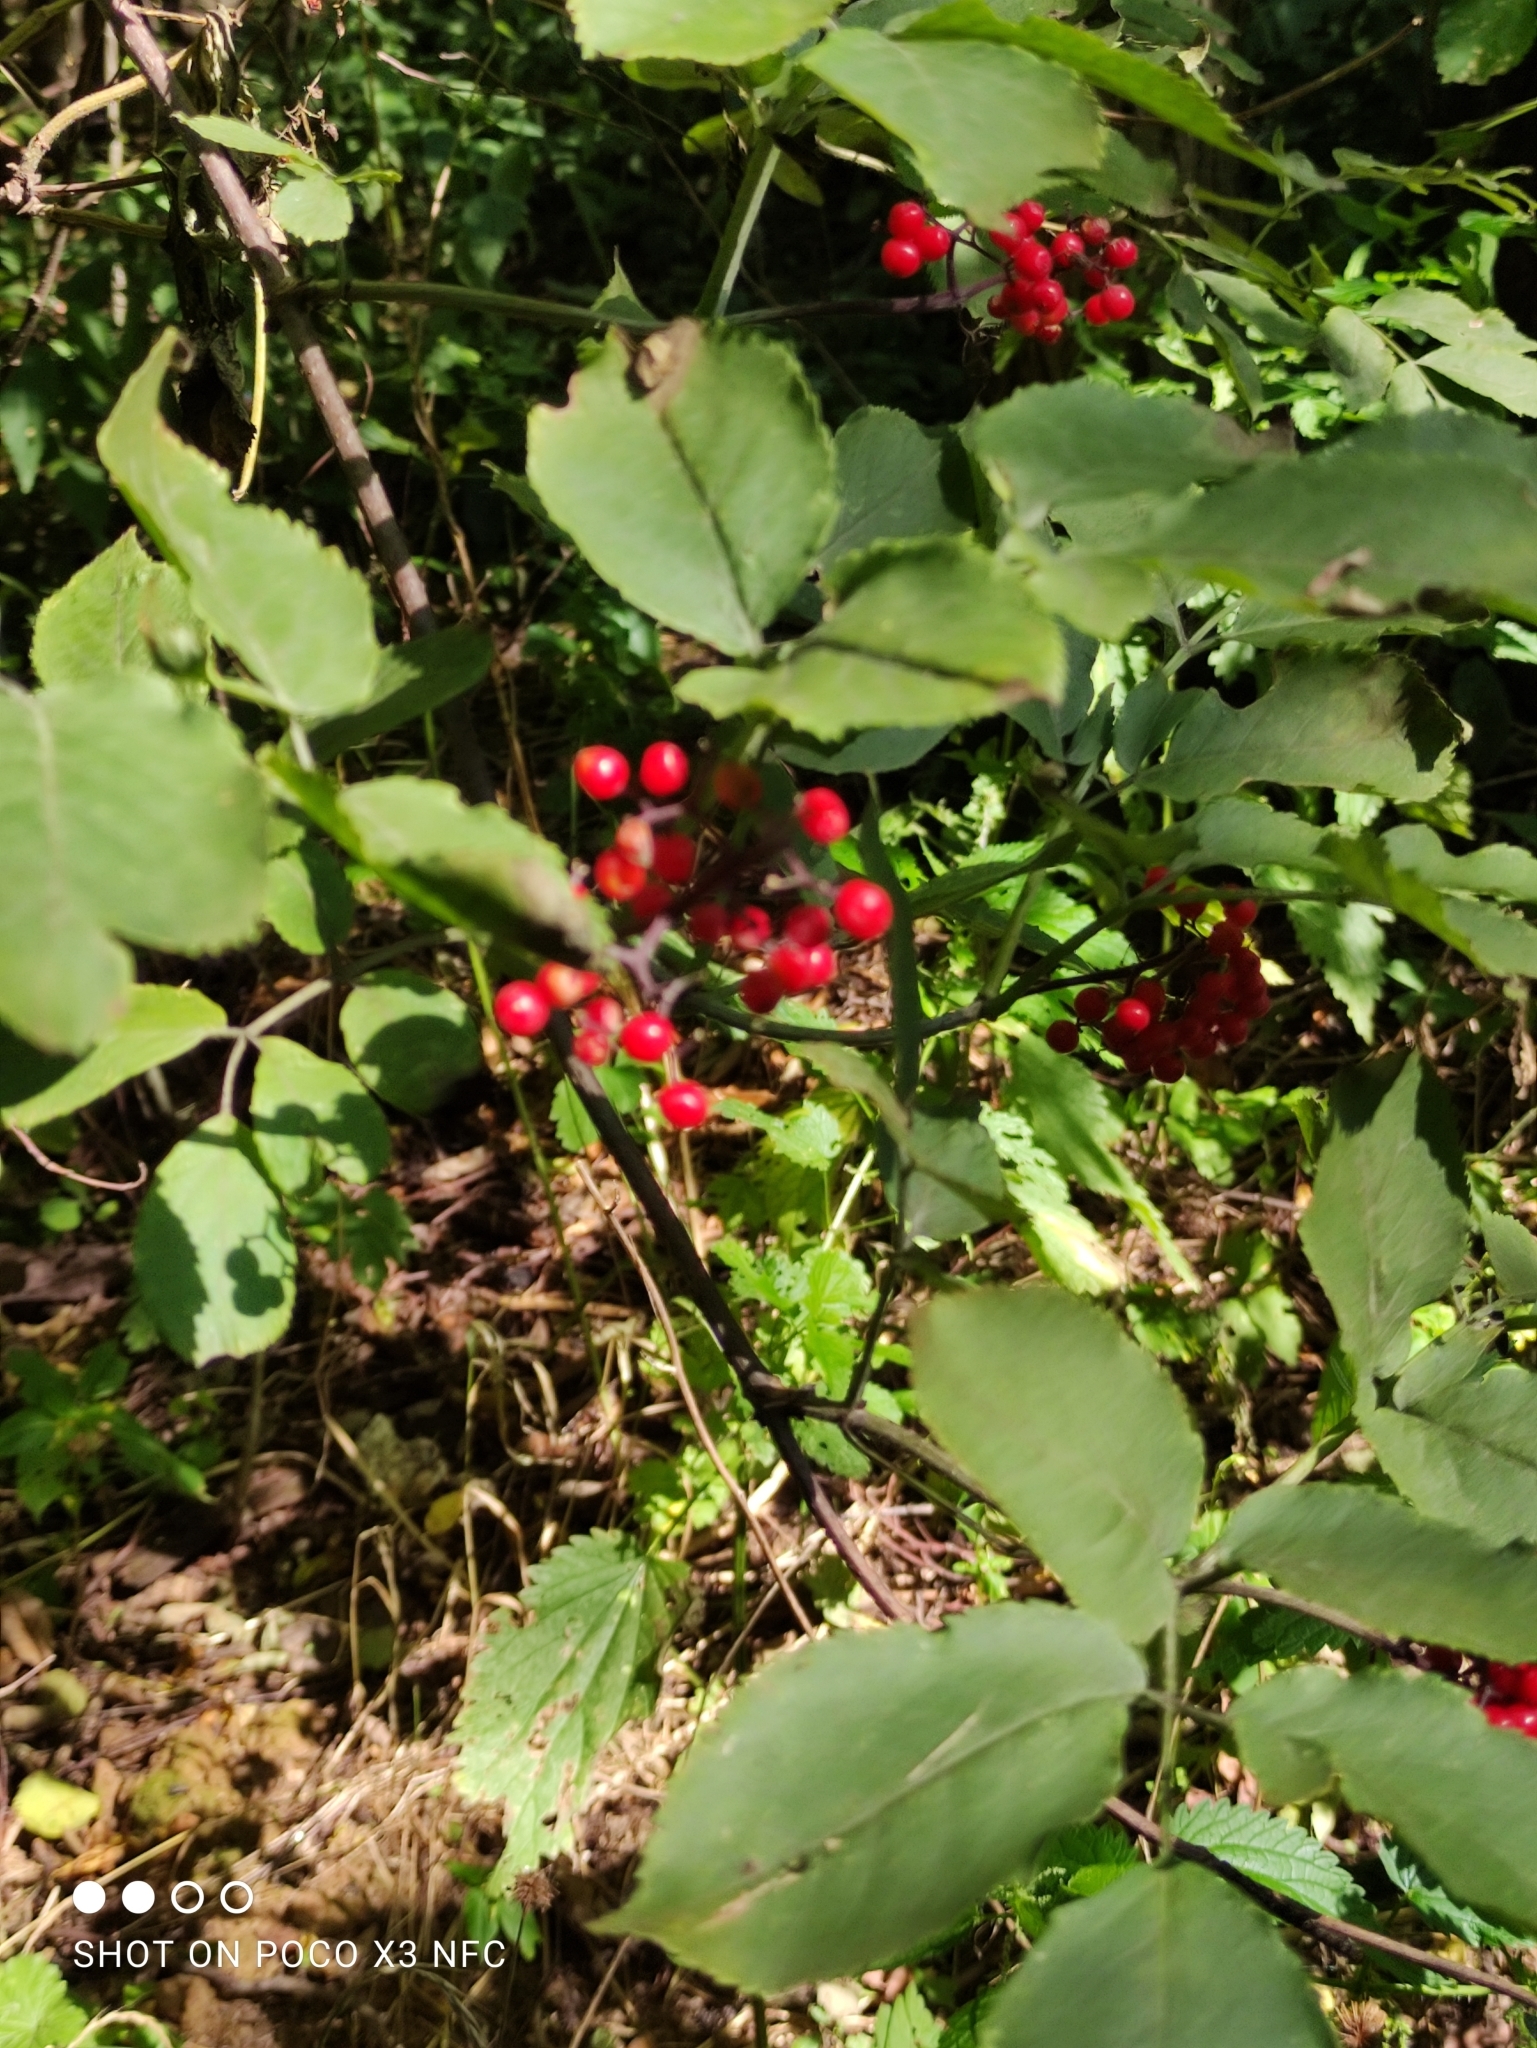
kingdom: Plantae
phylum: Tracheophyta
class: Magnoliopsida
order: Dipsacales
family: Viburnaceae
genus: Sambucus
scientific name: Sambucus racemosa
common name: Red-berried elder
